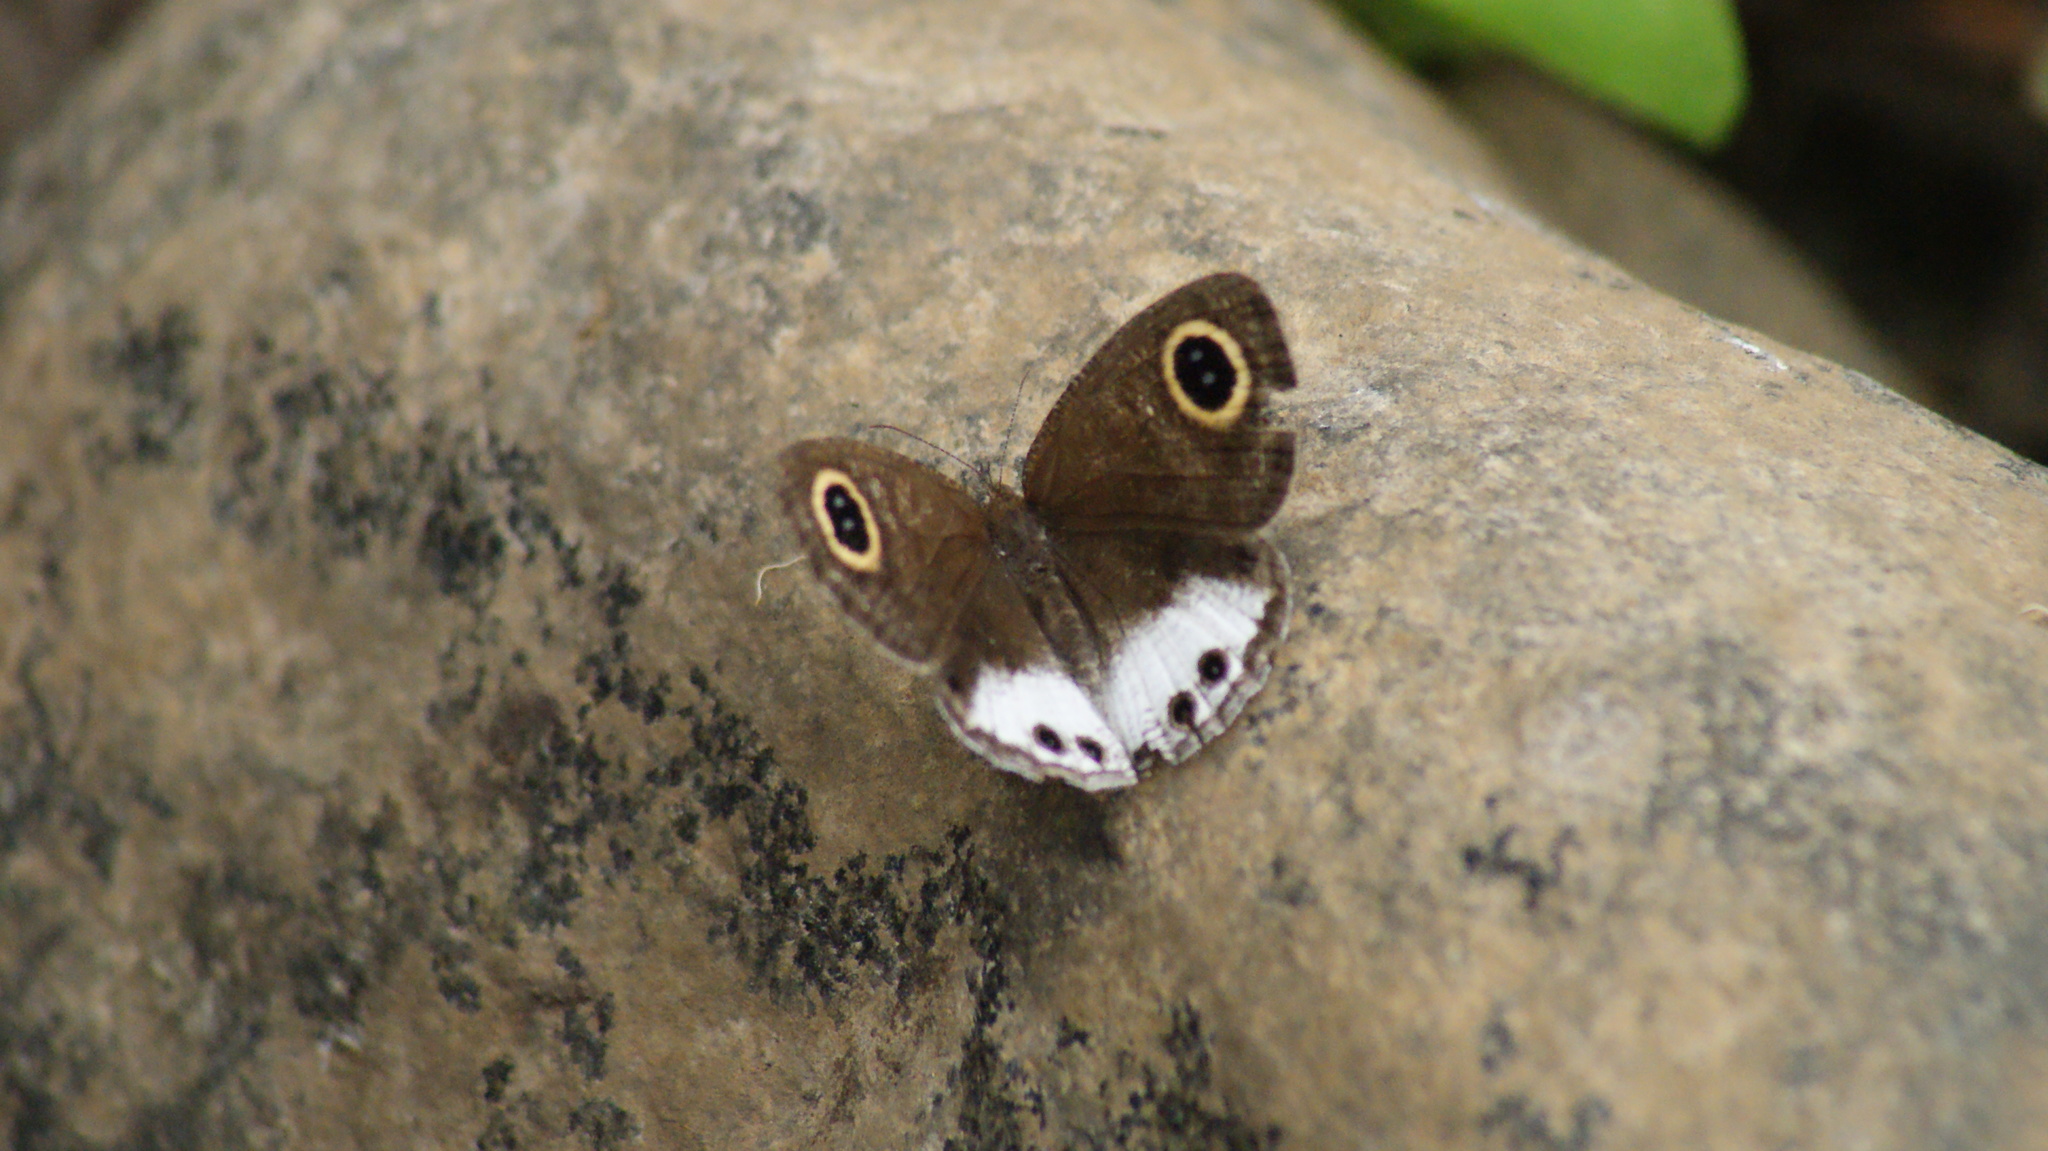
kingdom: Animalia
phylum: Arthropoda
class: Insecta
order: Lepidoptera
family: Nymphalidae
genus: Ypthima
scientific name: Ypthima ceylonica
